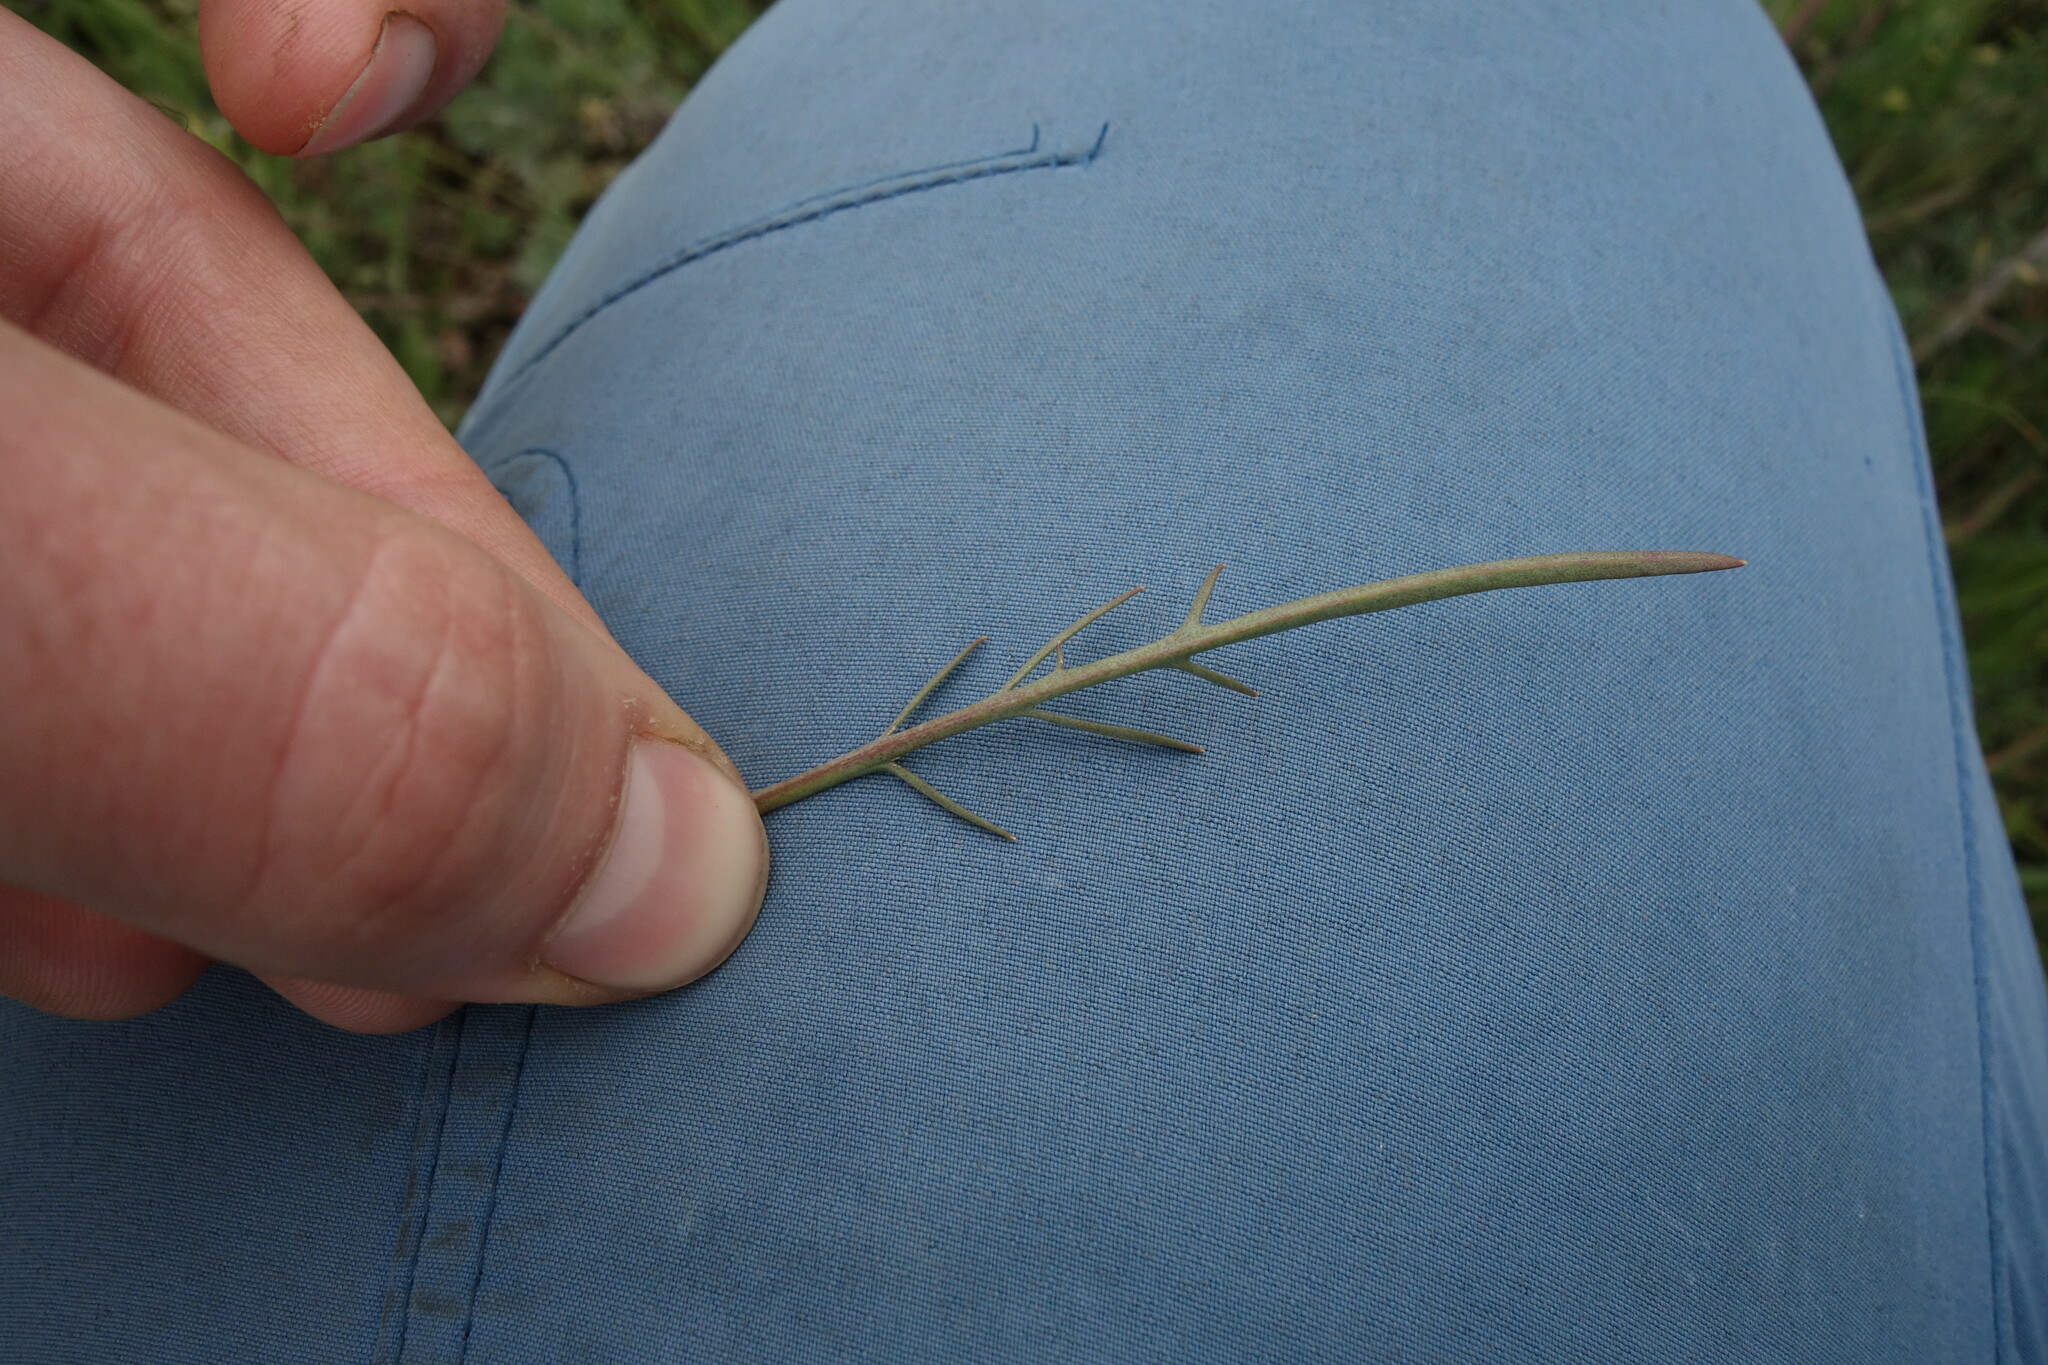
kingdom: Plantae
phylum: Tracheophyta
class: Magnoliopsida
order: Brassicales
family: Brassicaceae
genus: Sisymbrium
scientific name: Sisymbrium polymorphum
